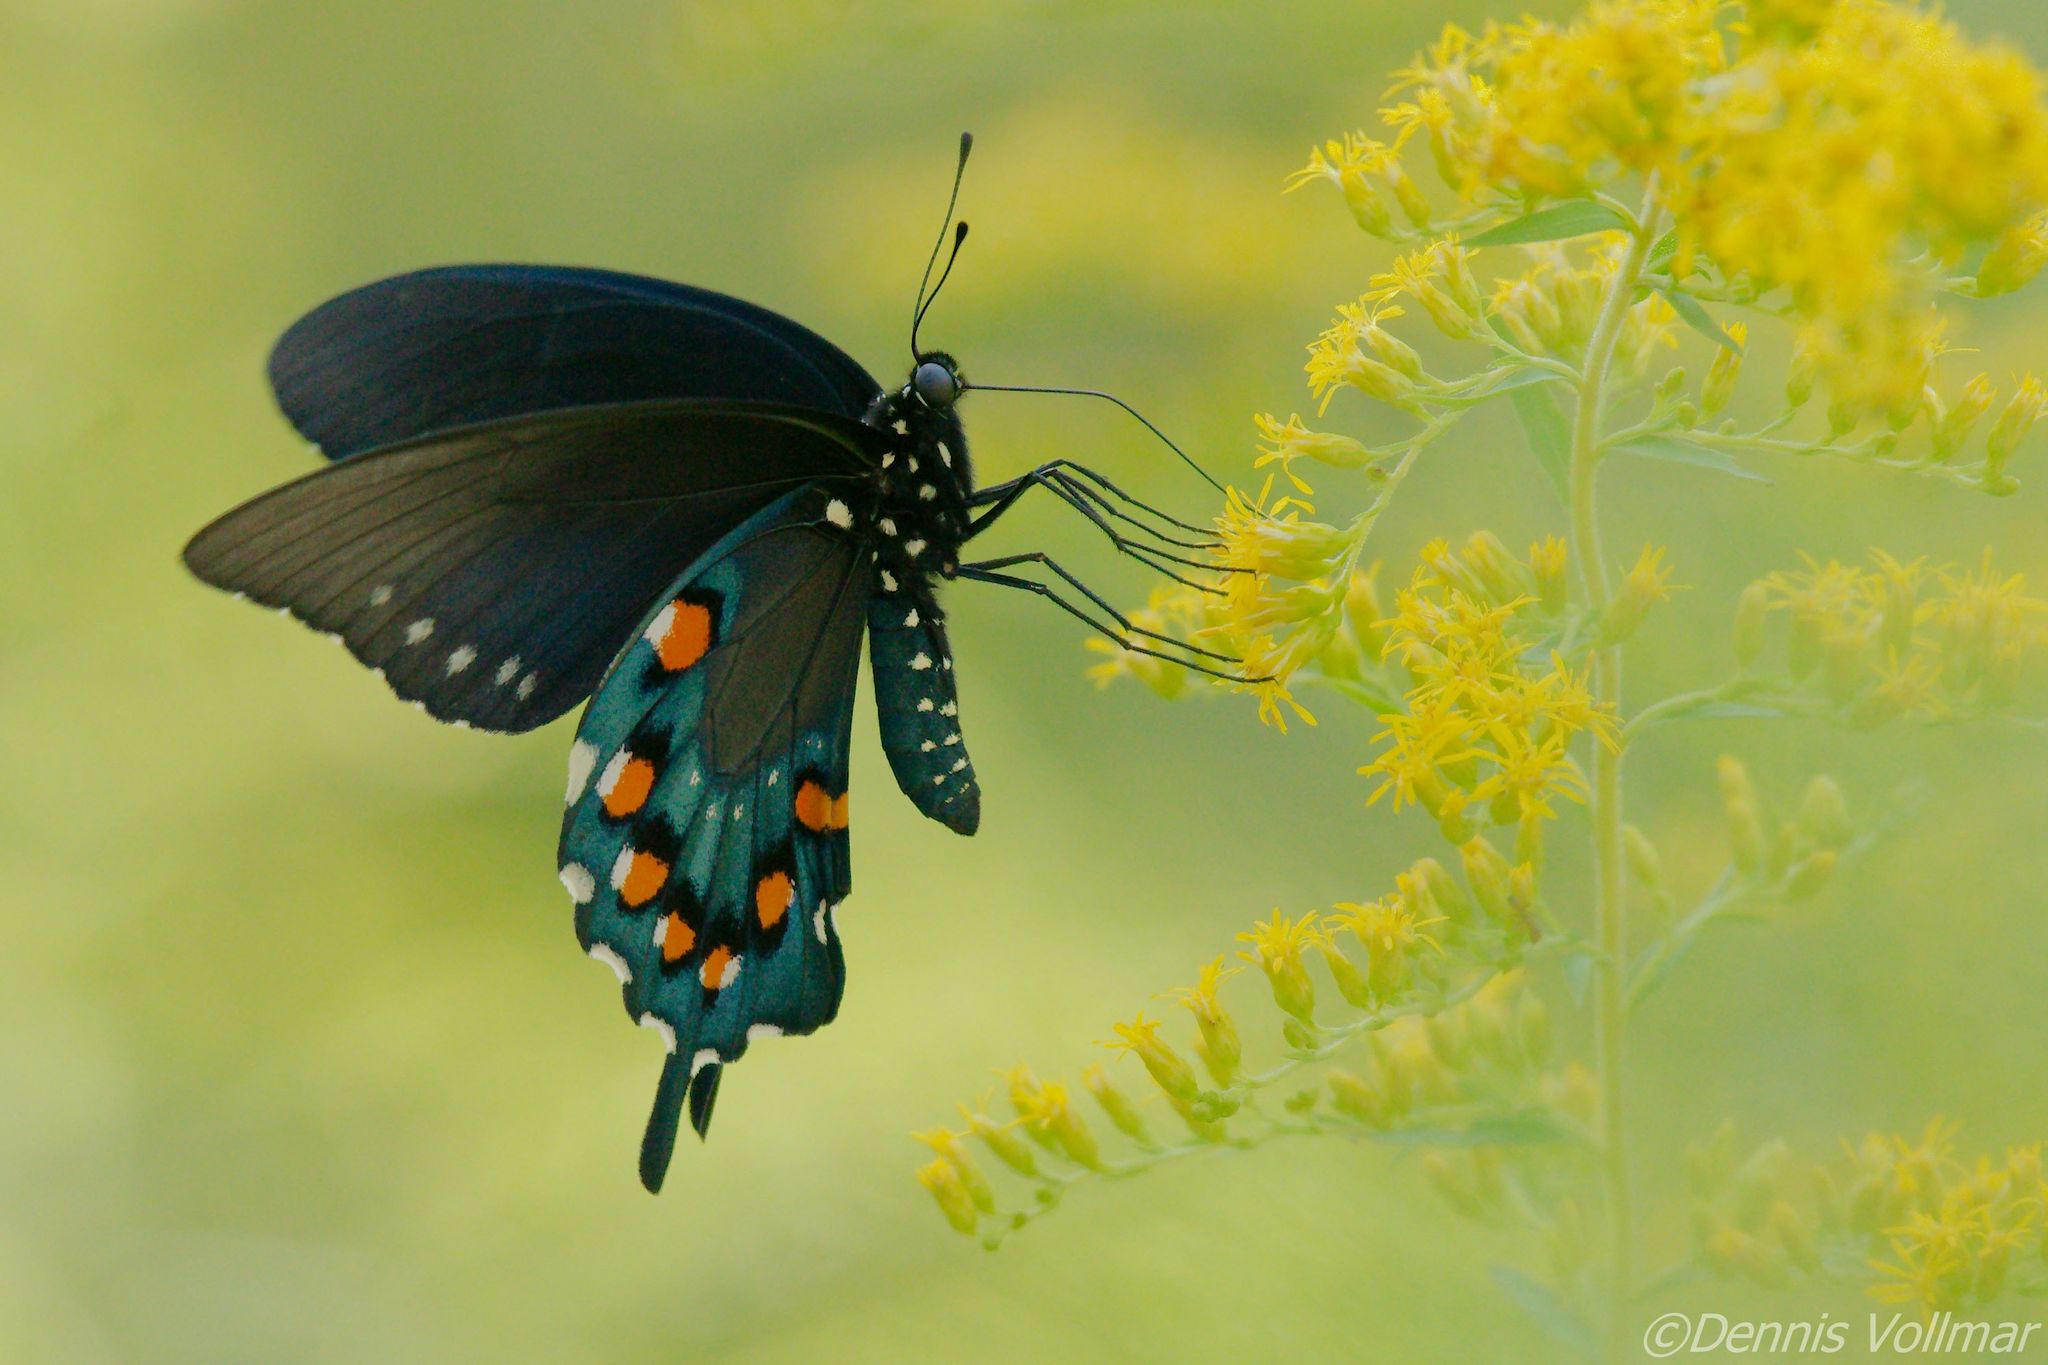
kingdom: Animalia
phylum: Arthropoda
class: Insecta
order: Lepidoptera
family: Papilionidae
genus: Battus
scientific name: Battus philenor
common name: Pipevine swallowtail
